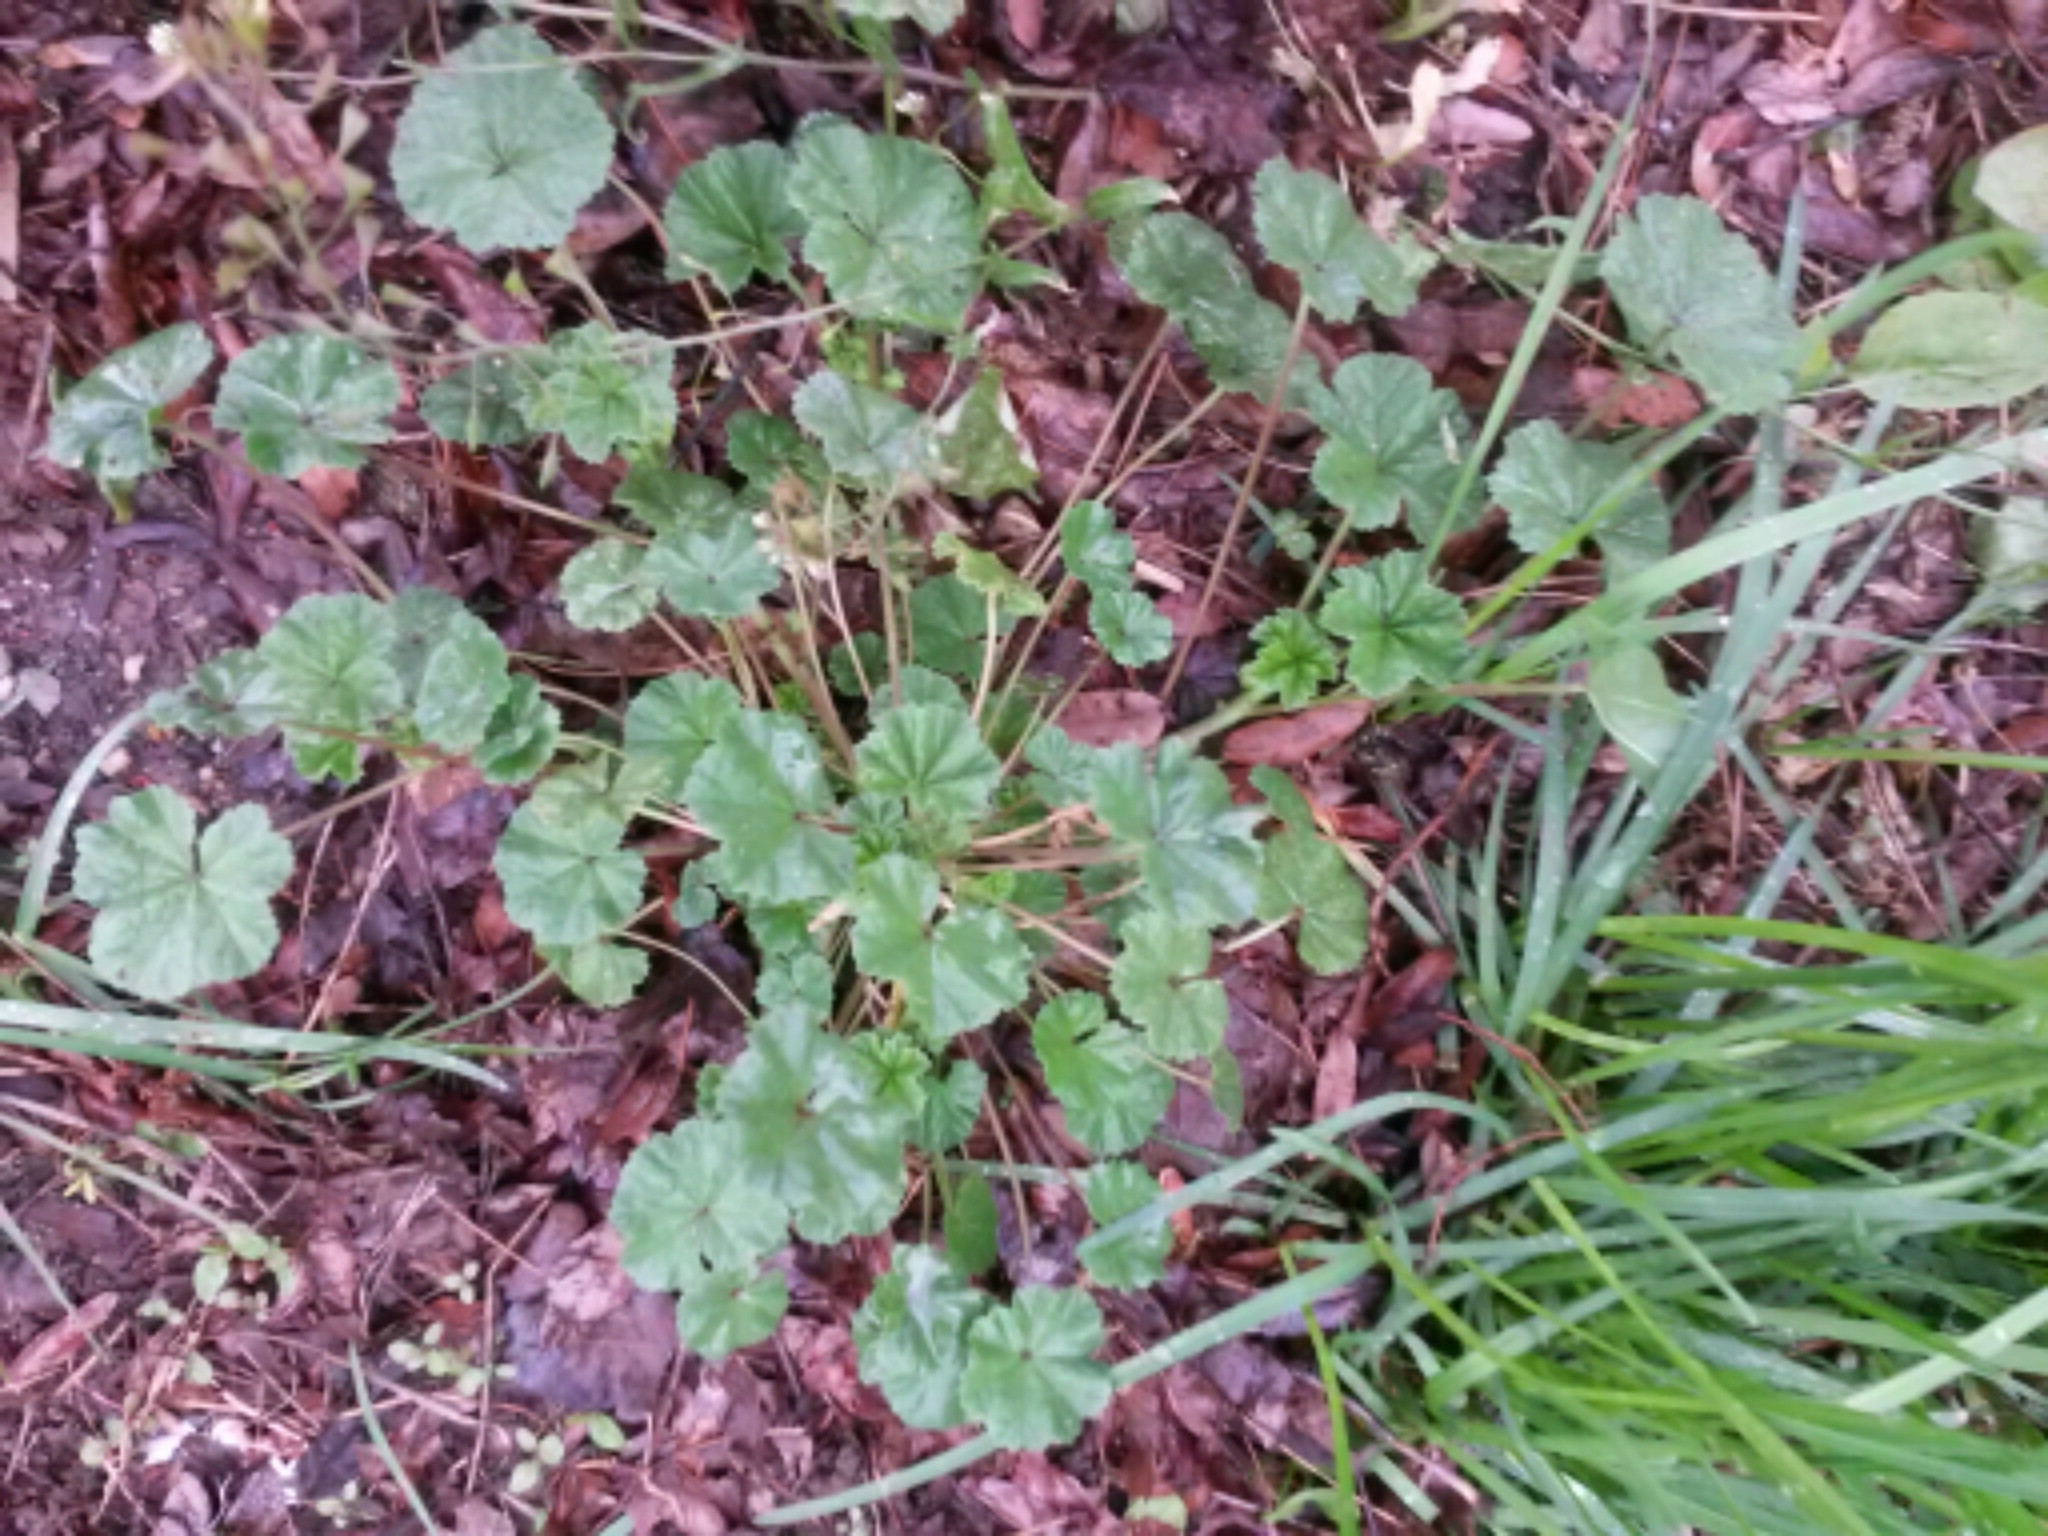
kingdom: Plantae
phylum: Tracheophyta
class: Magnoliopsida
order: Malvales
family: Malvaceae
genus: Malva
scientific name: Malva neglecta
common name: Common mallow
